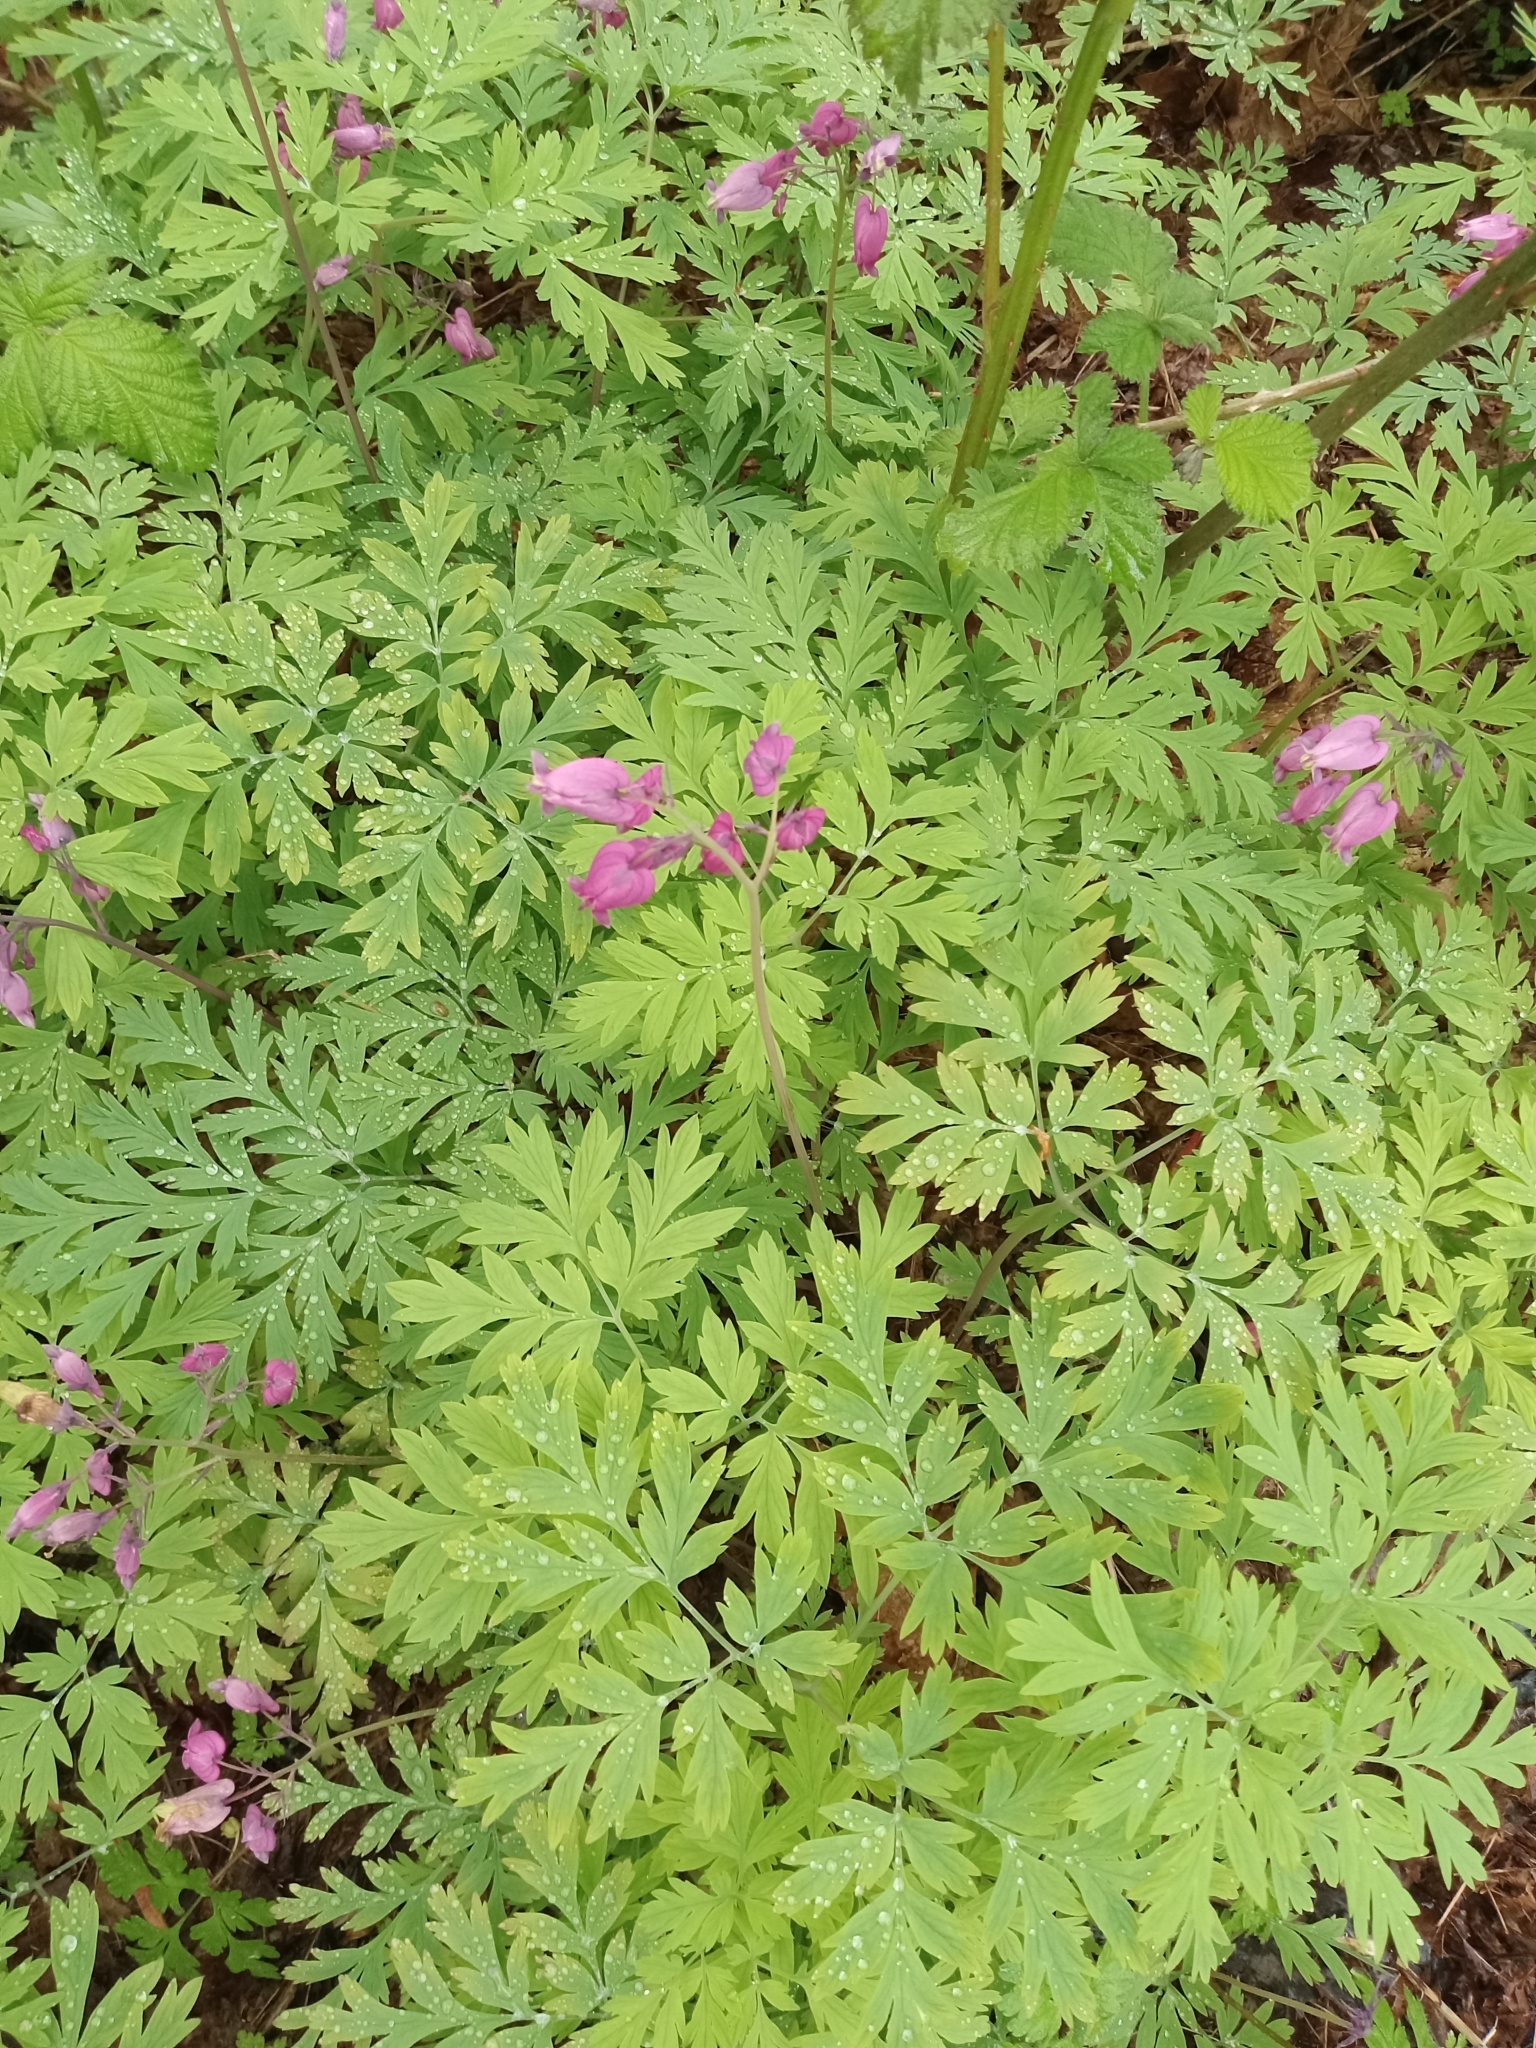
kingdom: Plantae
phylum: Tracheophyta
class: Magnoliopsida
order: Ranunculales
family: Papaveraceae
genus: Dicentra
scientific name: Dicentra formosa
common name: Bleeding-heart
